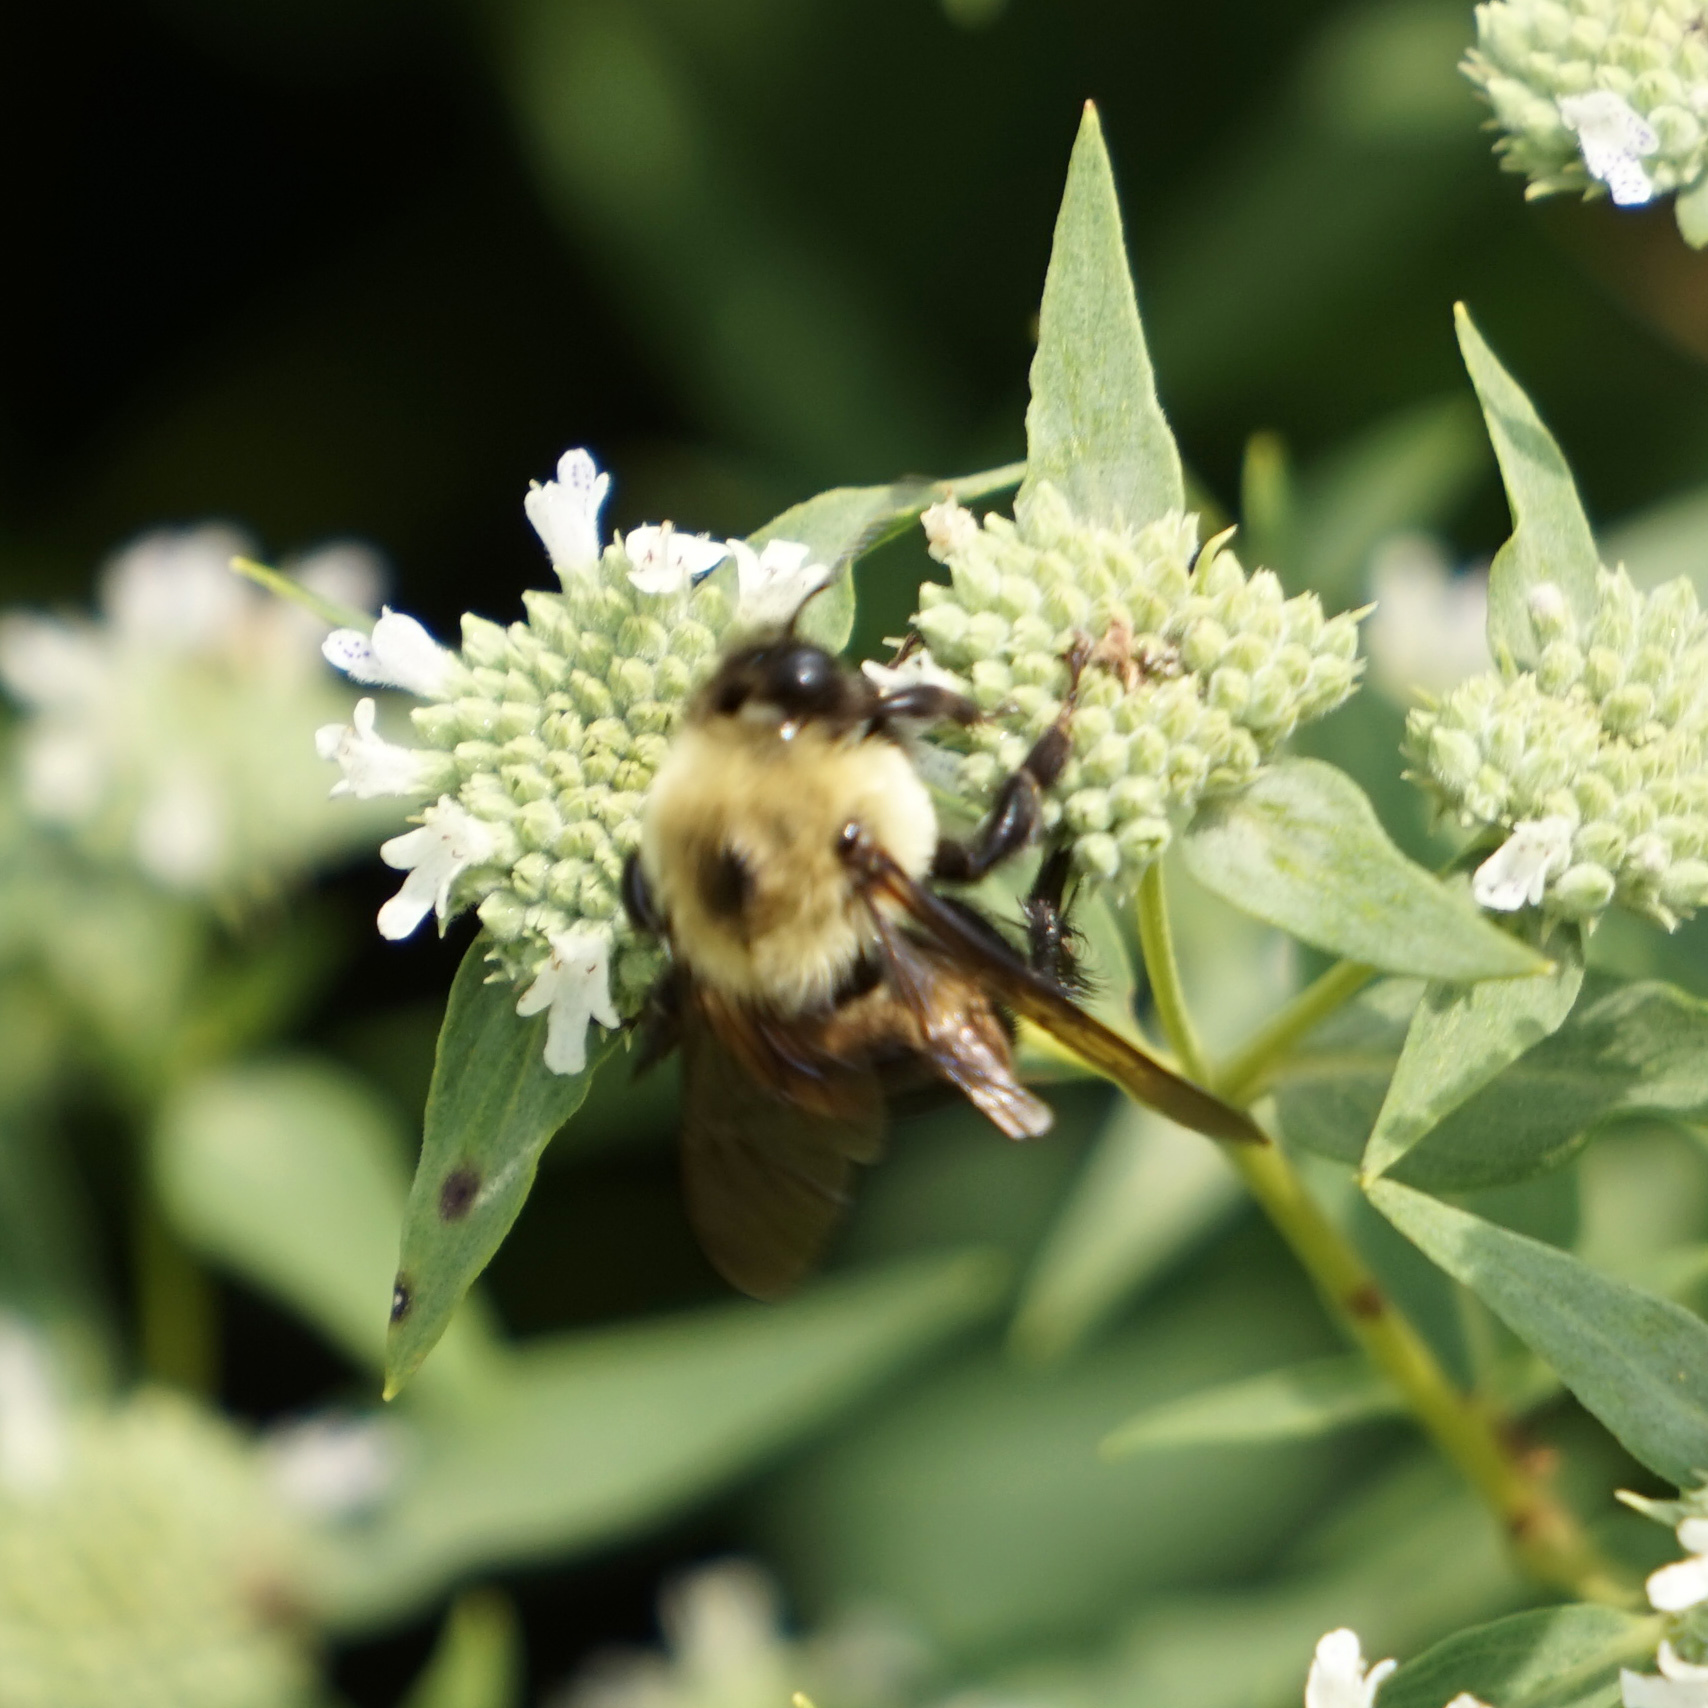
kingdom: Animalia
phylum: Arthropoda
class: Insecta
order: Hymenoptera
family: Apidae
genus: Bombus
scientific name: Bombus griseocollis
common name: Brown-belted bumble bee
